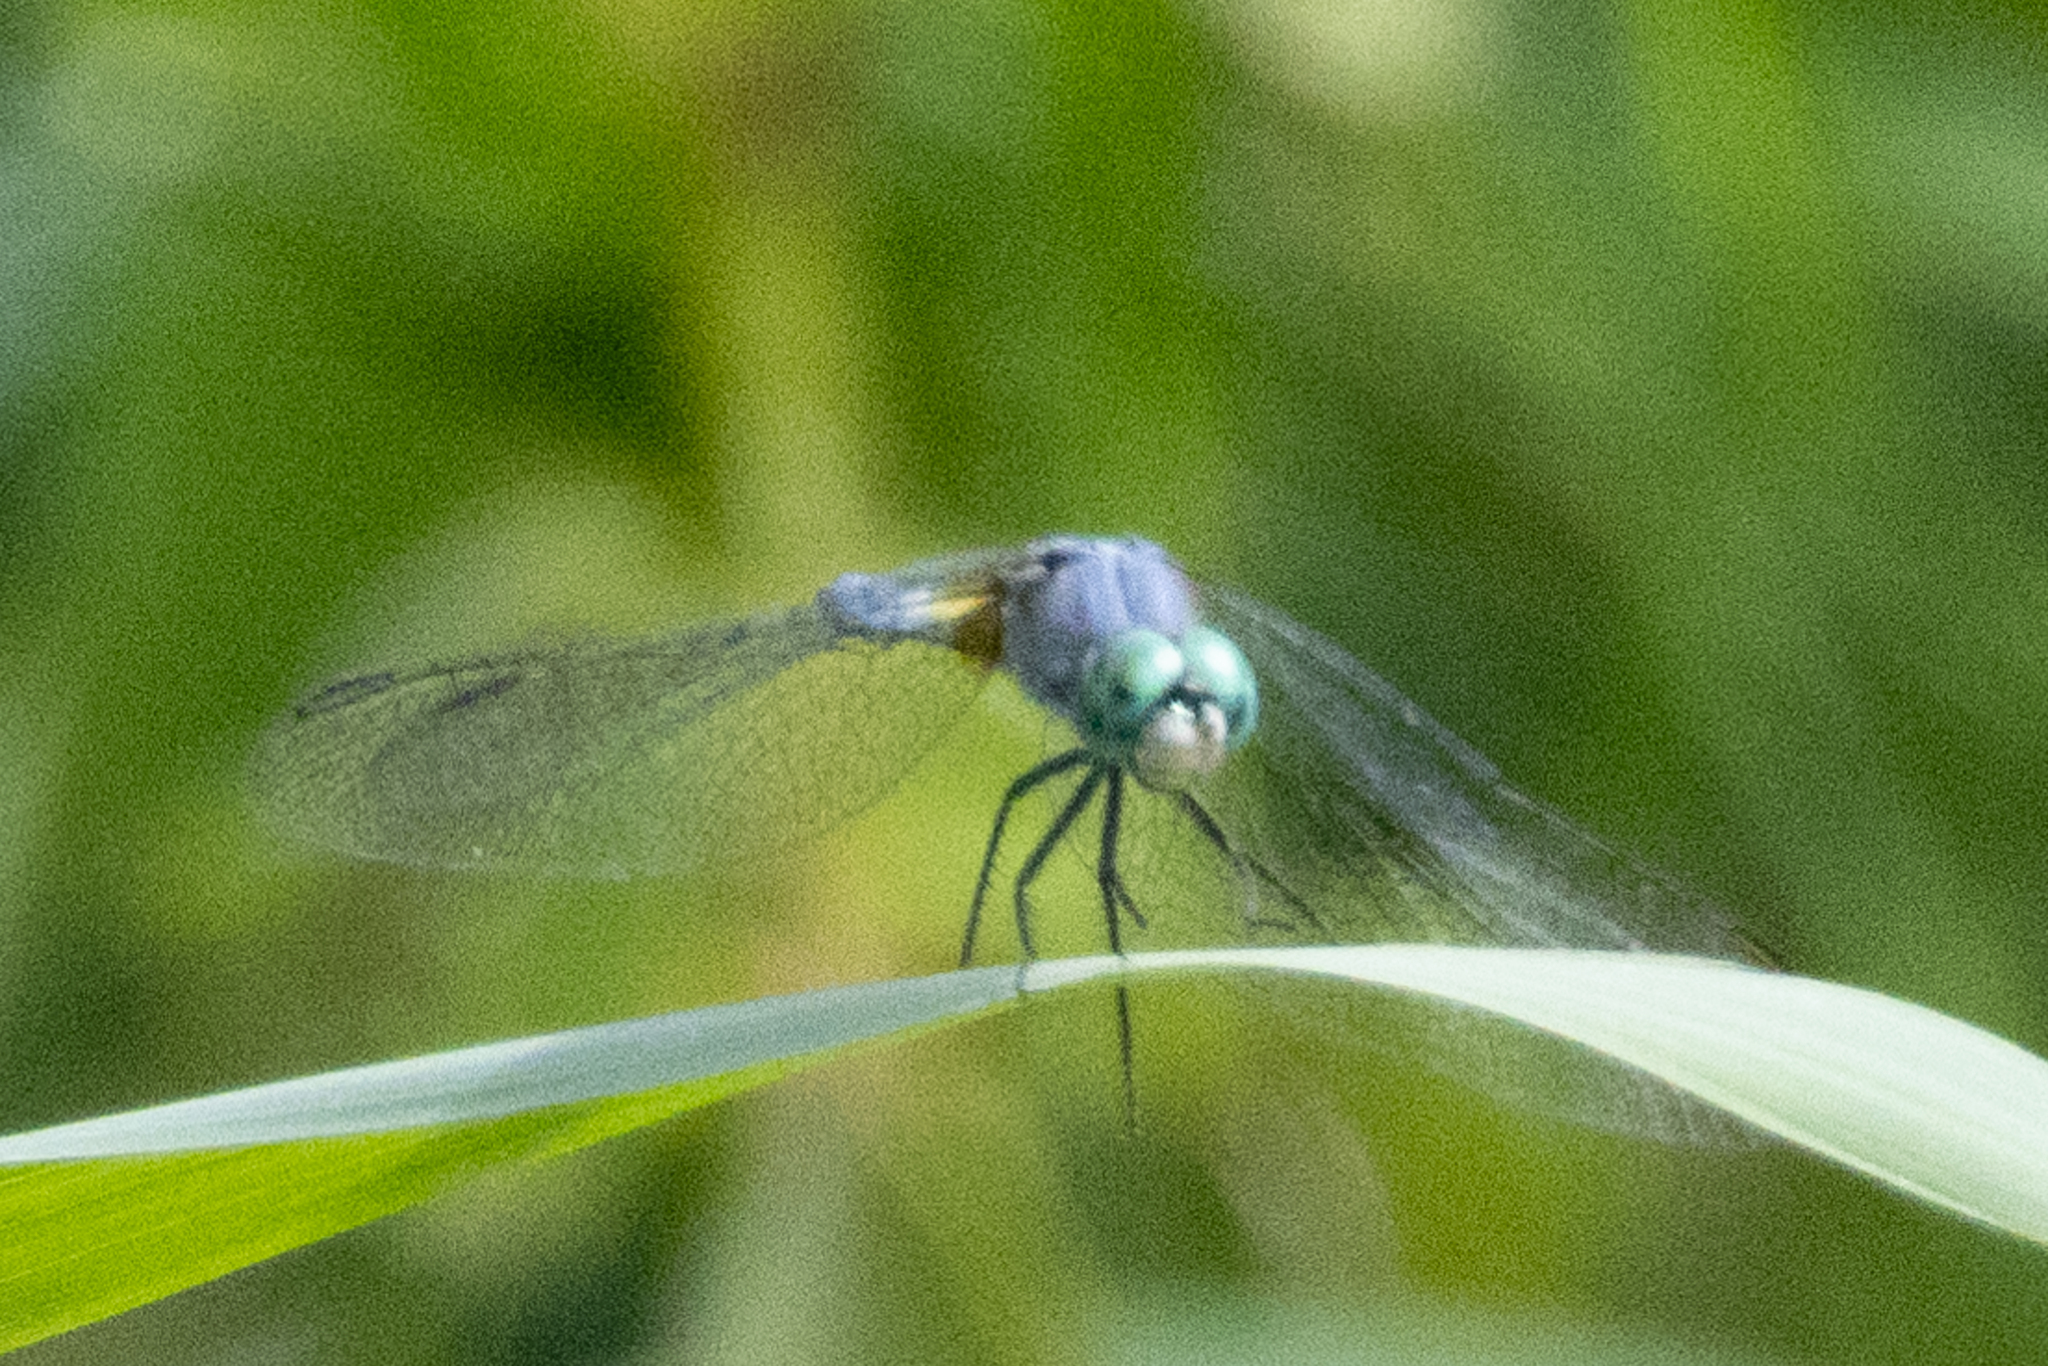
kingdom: Animalia
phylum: Arthropoda
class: Insecta
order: Odonata
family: Libellulidae
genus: Pachydiplax
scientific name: Pachydiplax longipennis
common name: Blue dasher
